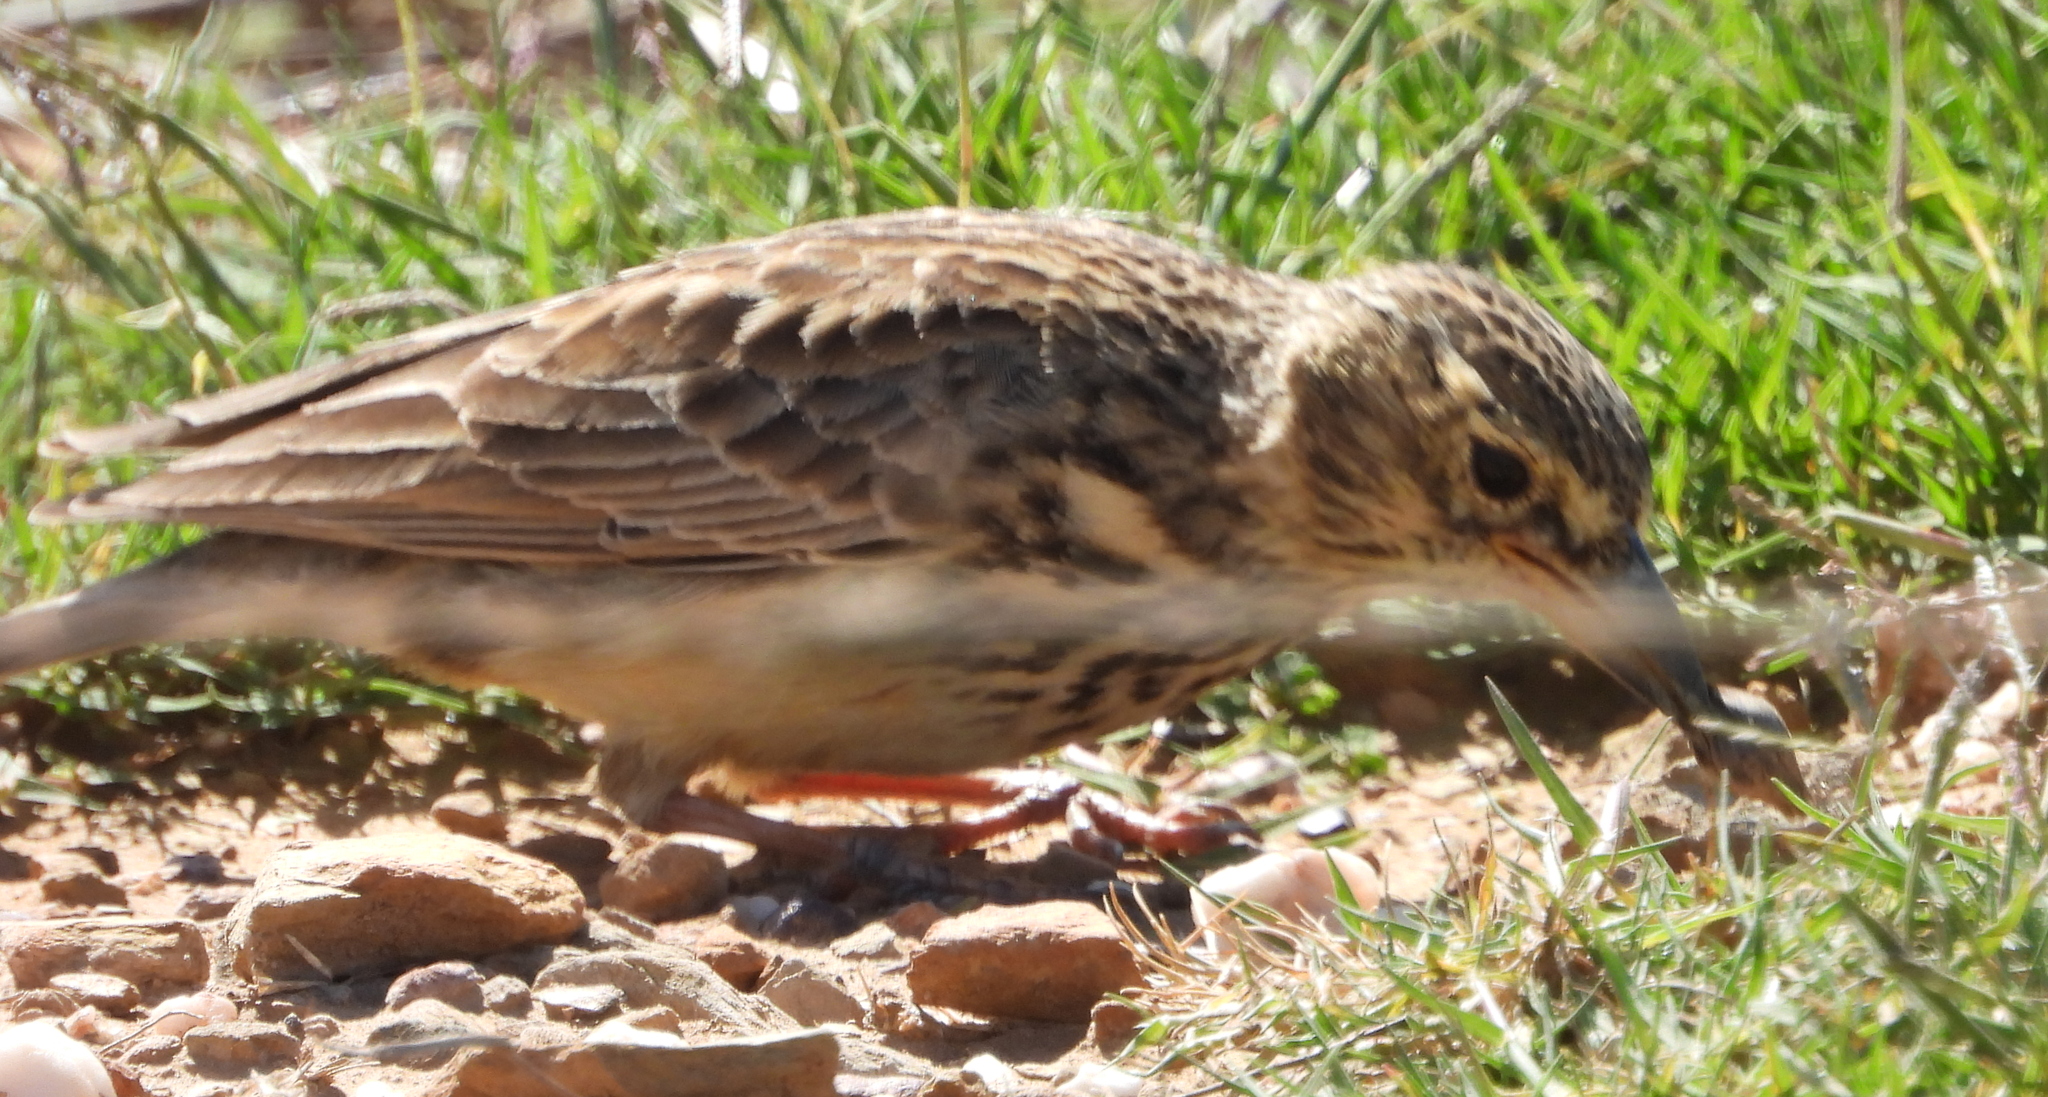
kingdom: Animalia
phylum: Chordata
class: Aves
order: Passeriformes
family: Alaudidae
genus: Galerida
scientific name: Galerida magnirostris
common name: Large-billed lark
